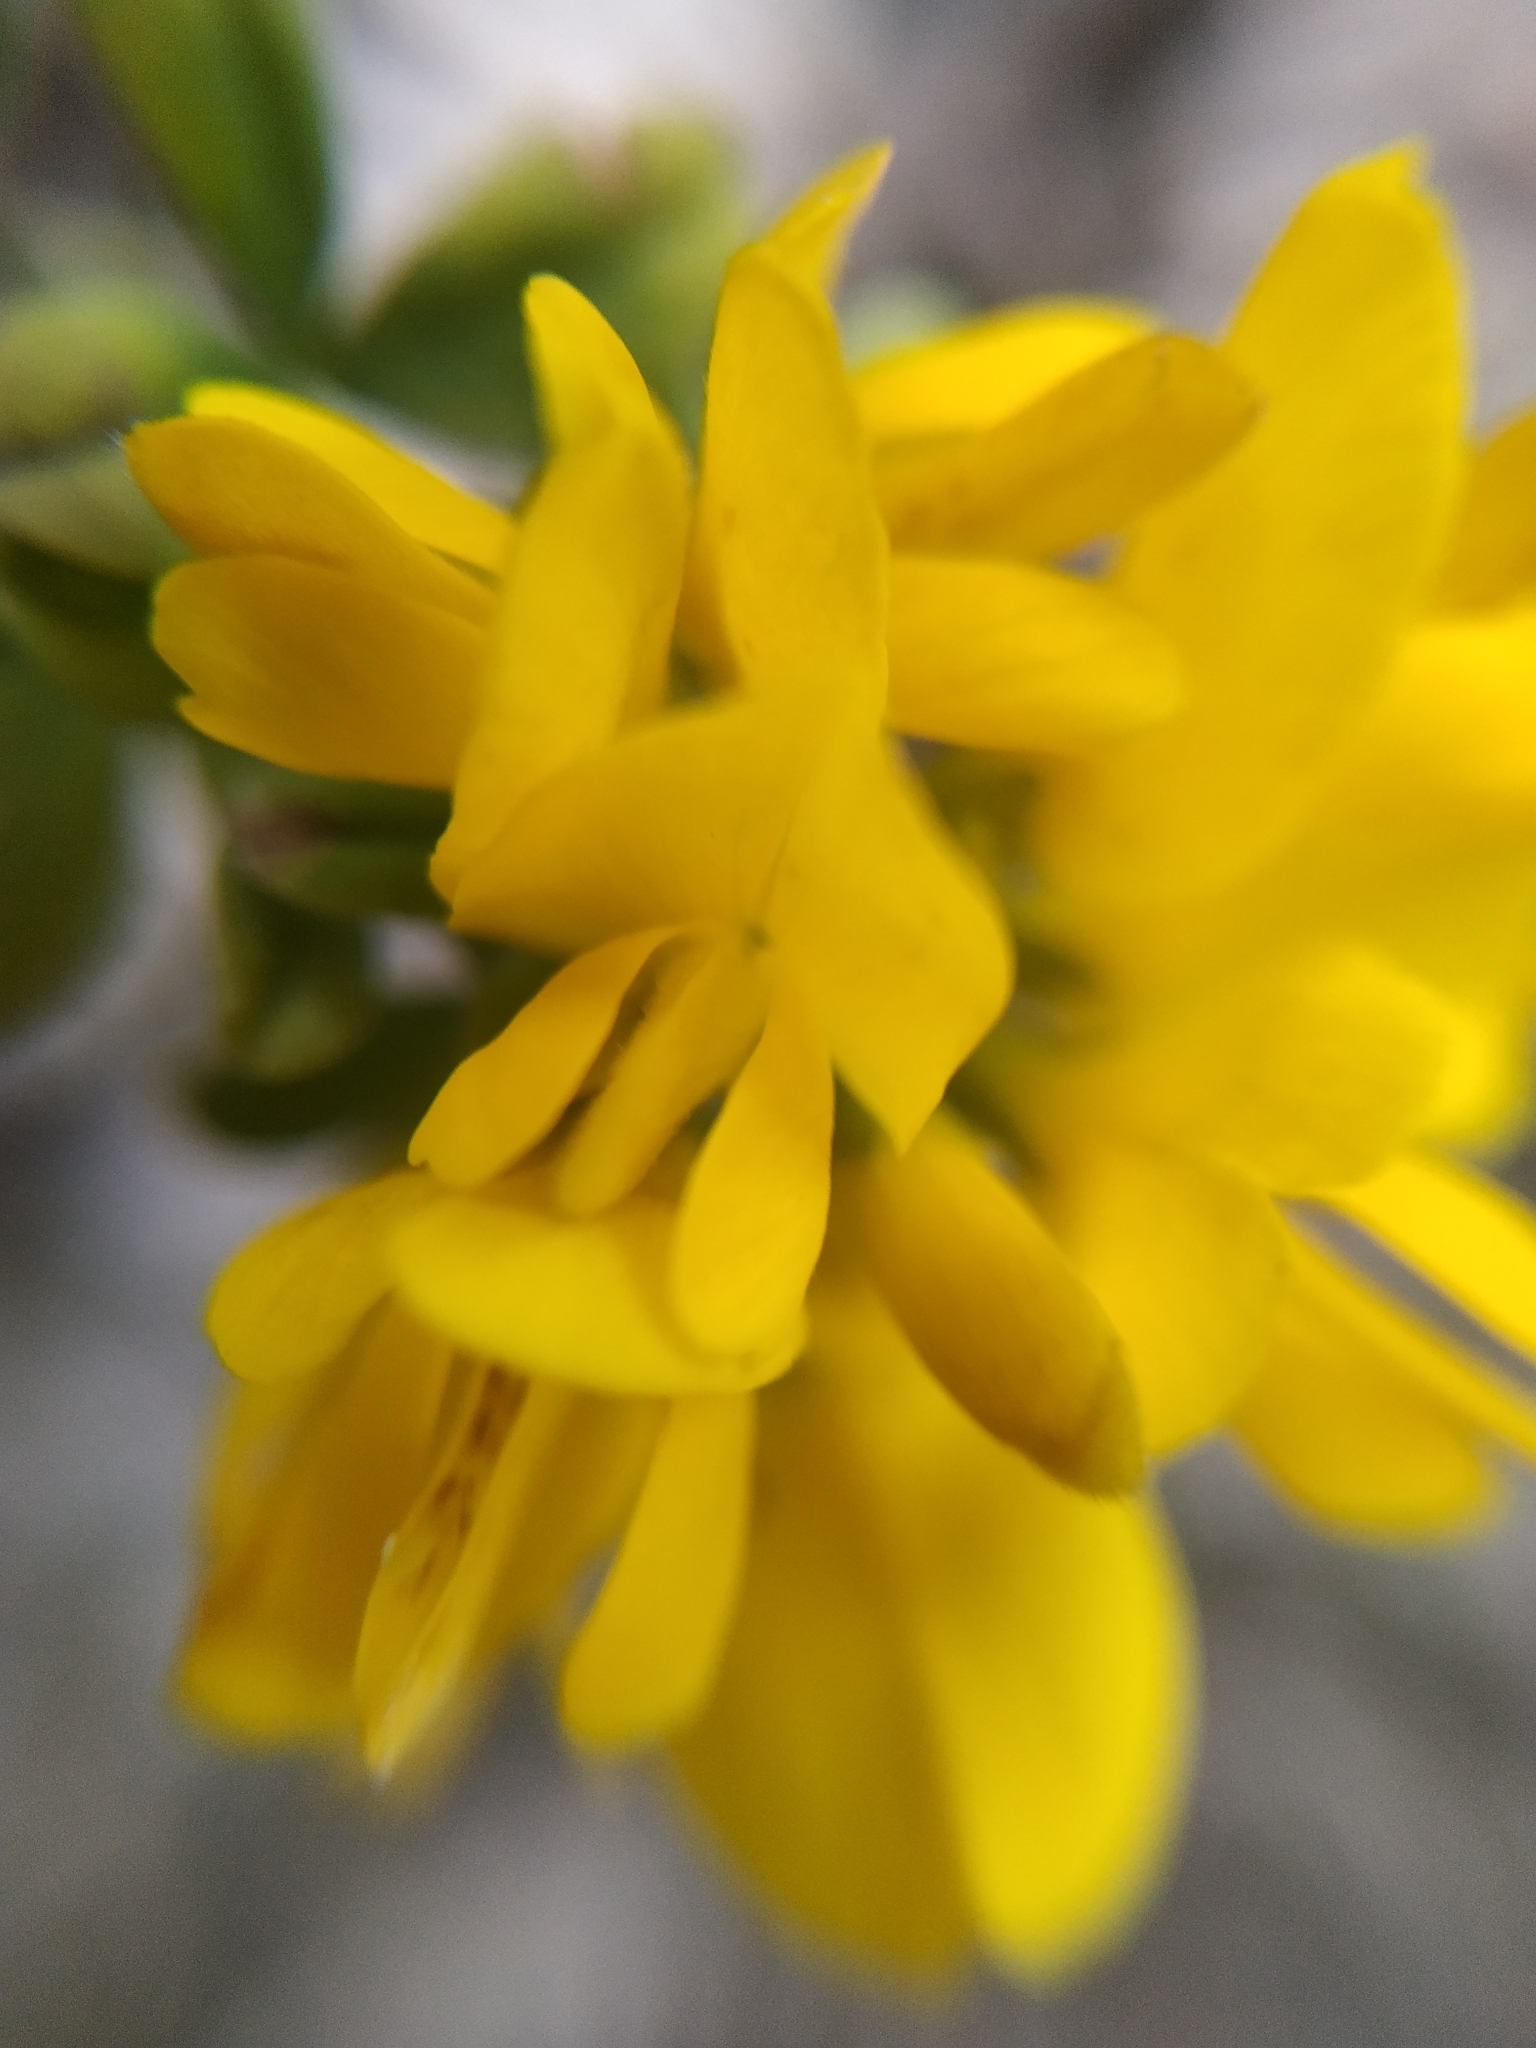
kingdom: Plantae
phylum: Tracheophyta
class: Magnoliopsida
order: Fabales
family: Fabaceae
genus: Genista
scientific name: Genista monspessulana
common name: Montpellier broom
